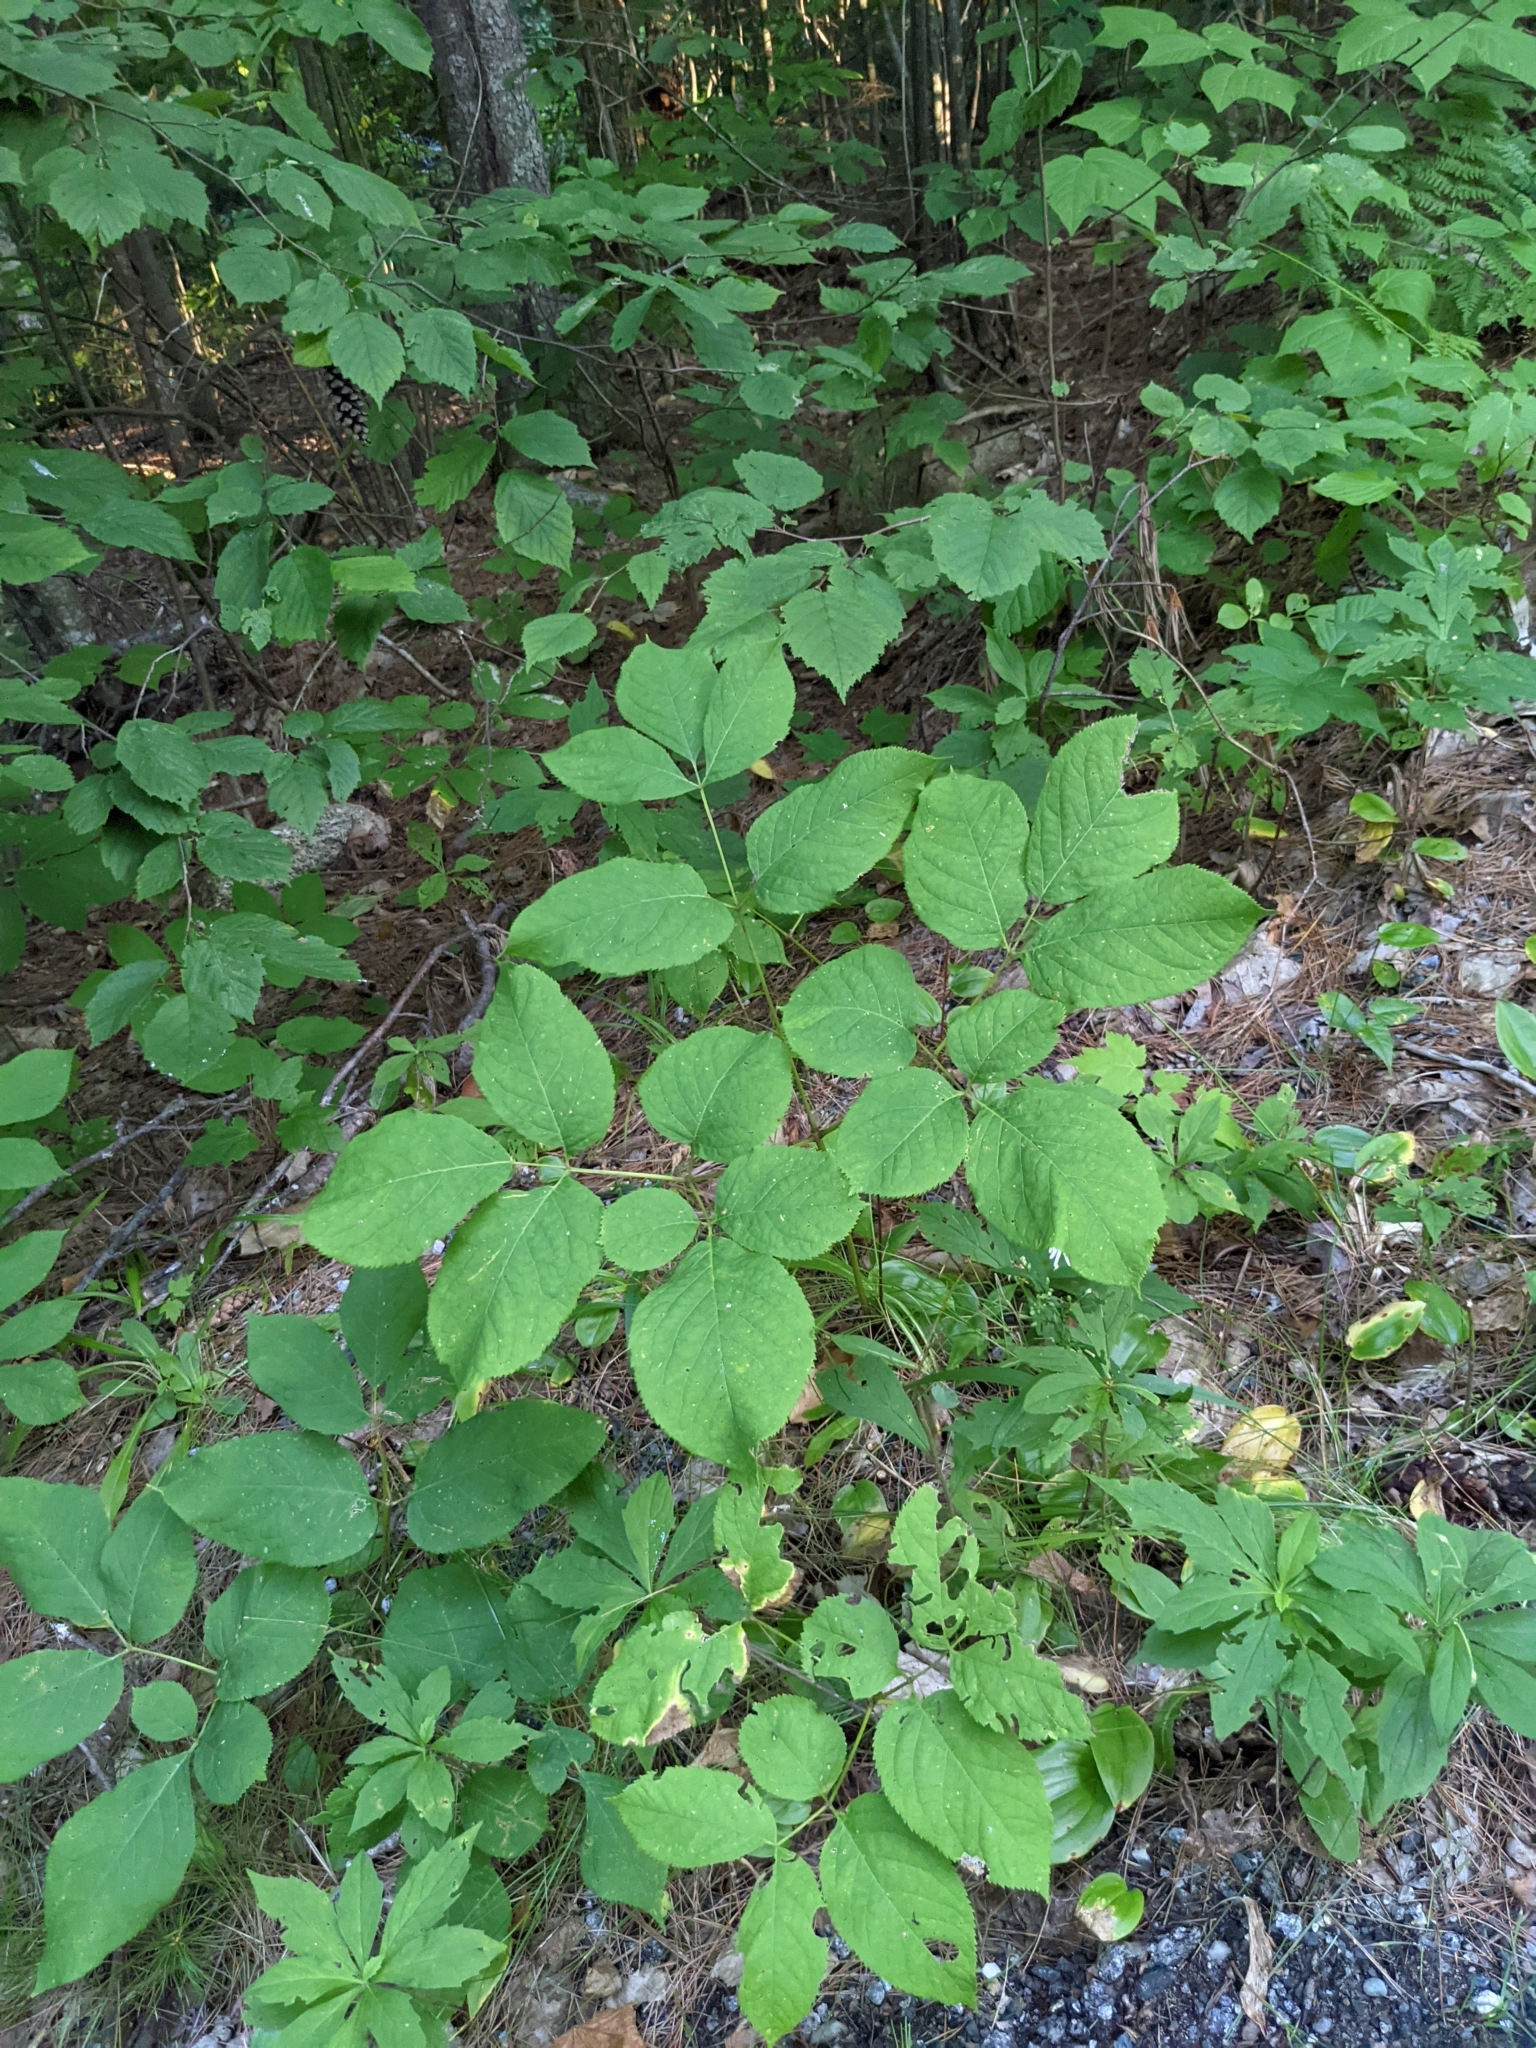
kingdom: Plantae
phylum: Tracheophyta
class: Magnoliopsida
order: Apiales
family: Araliaceae
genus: Aralia
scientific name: Aralia nudicaulis
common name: Wild sarsaparilla
